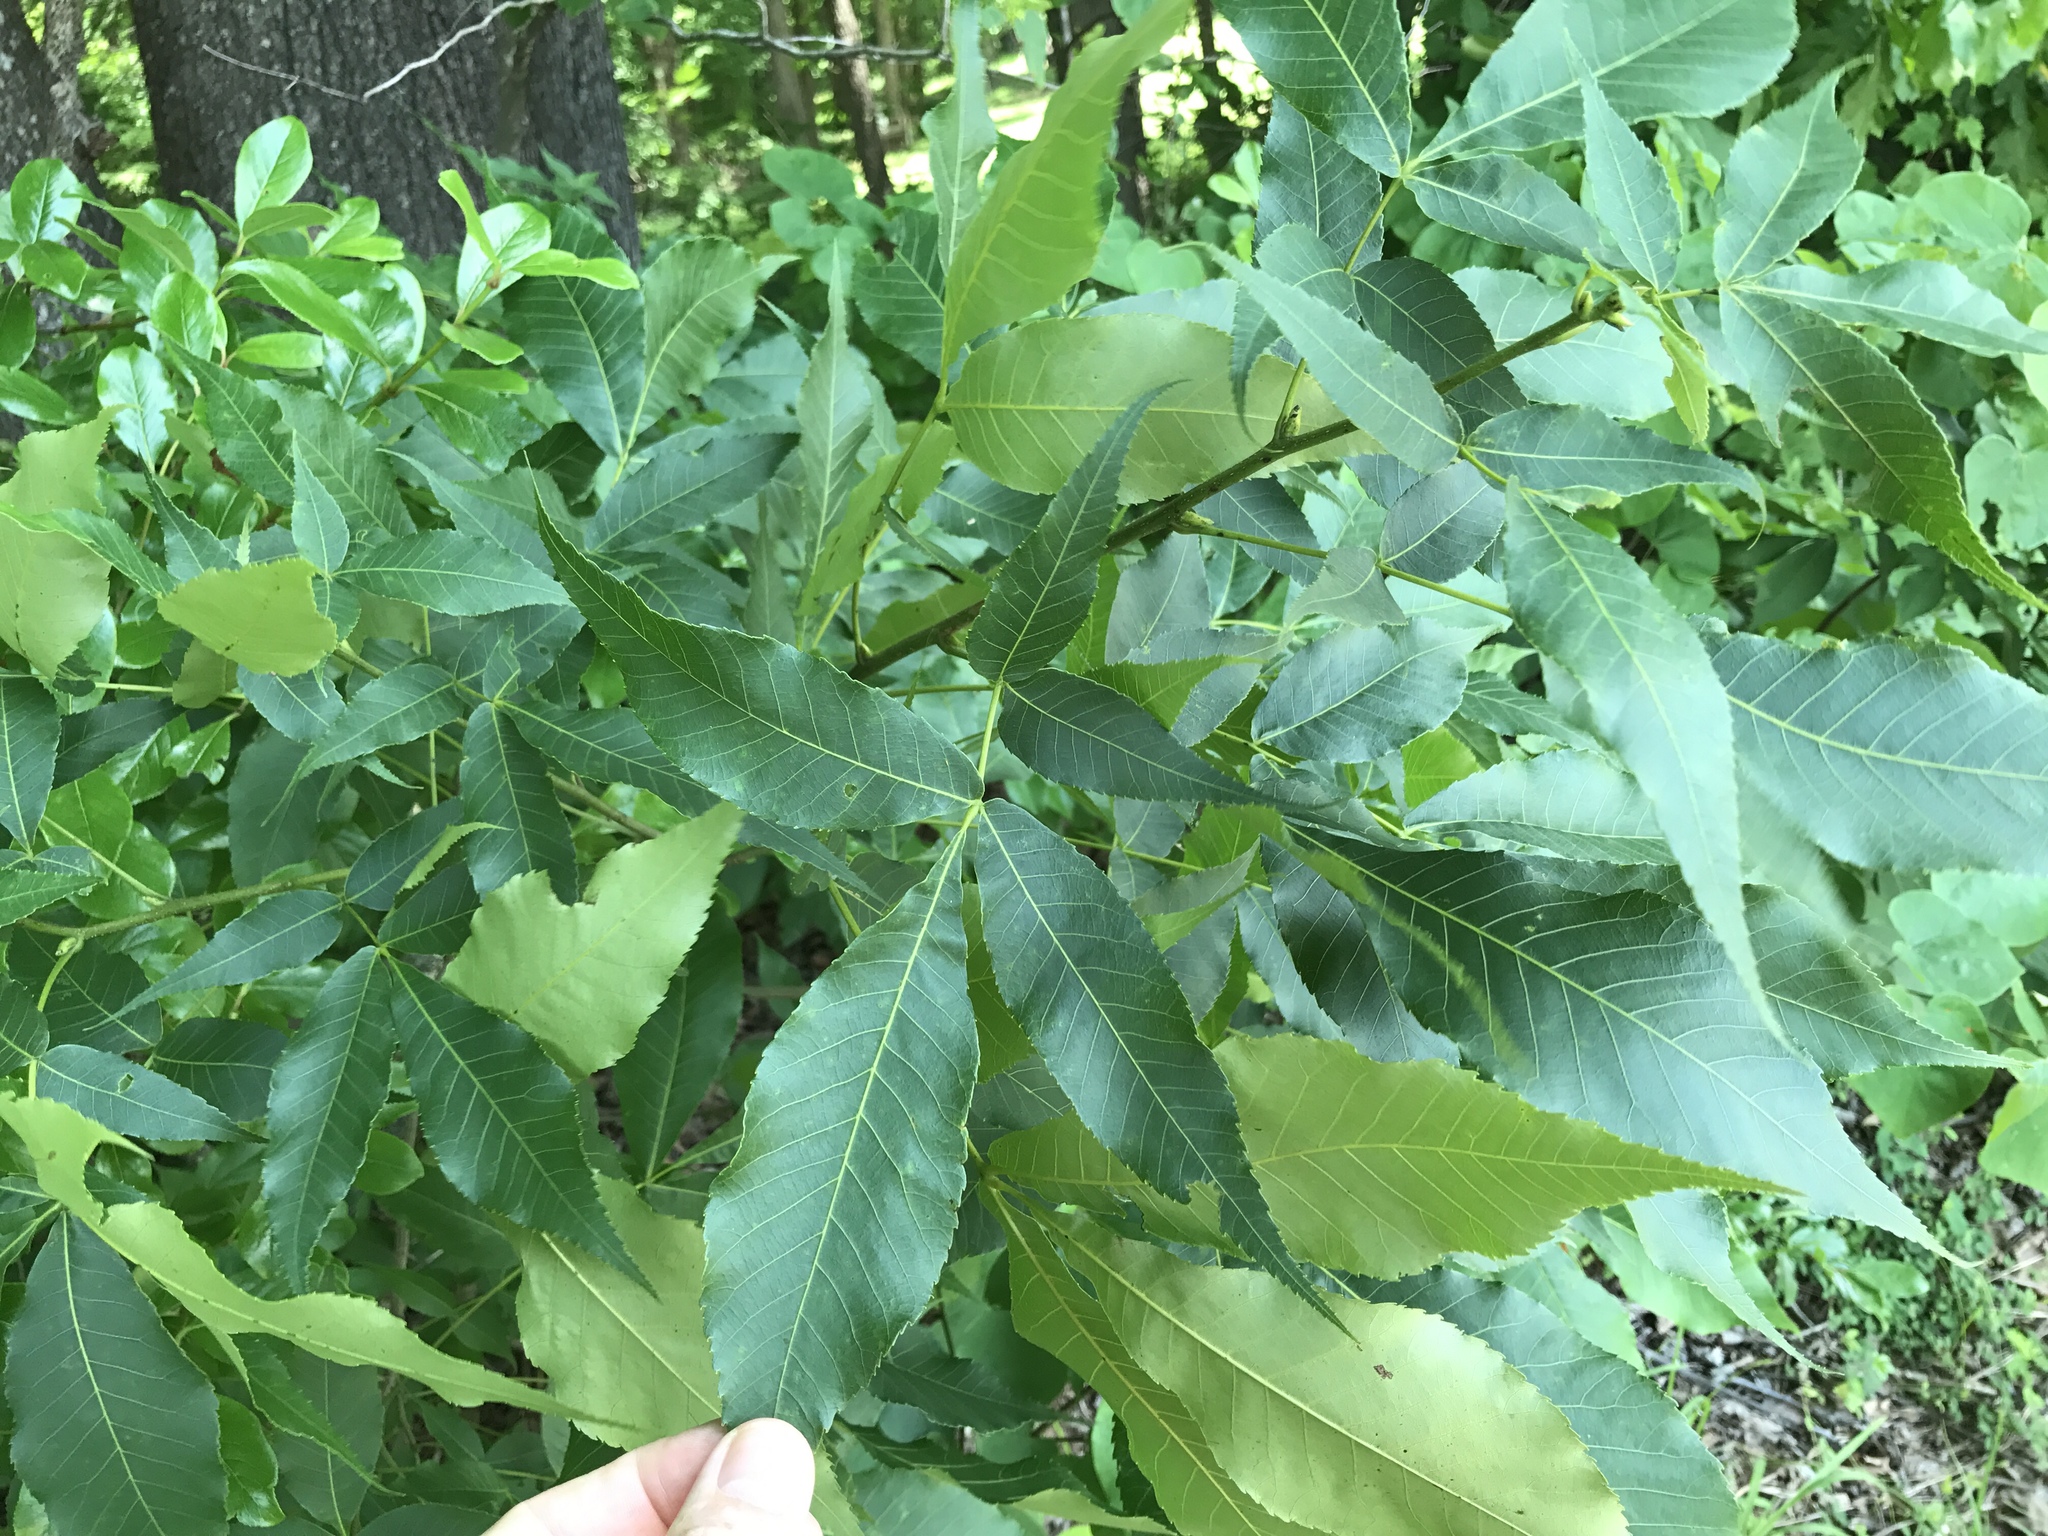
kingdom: Plantae
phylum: Tracheophyta
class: Magnoliopsida
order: Fagales
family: Juglandaceae
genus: Carya
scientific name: Carya glabra
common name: Pignut hickory
